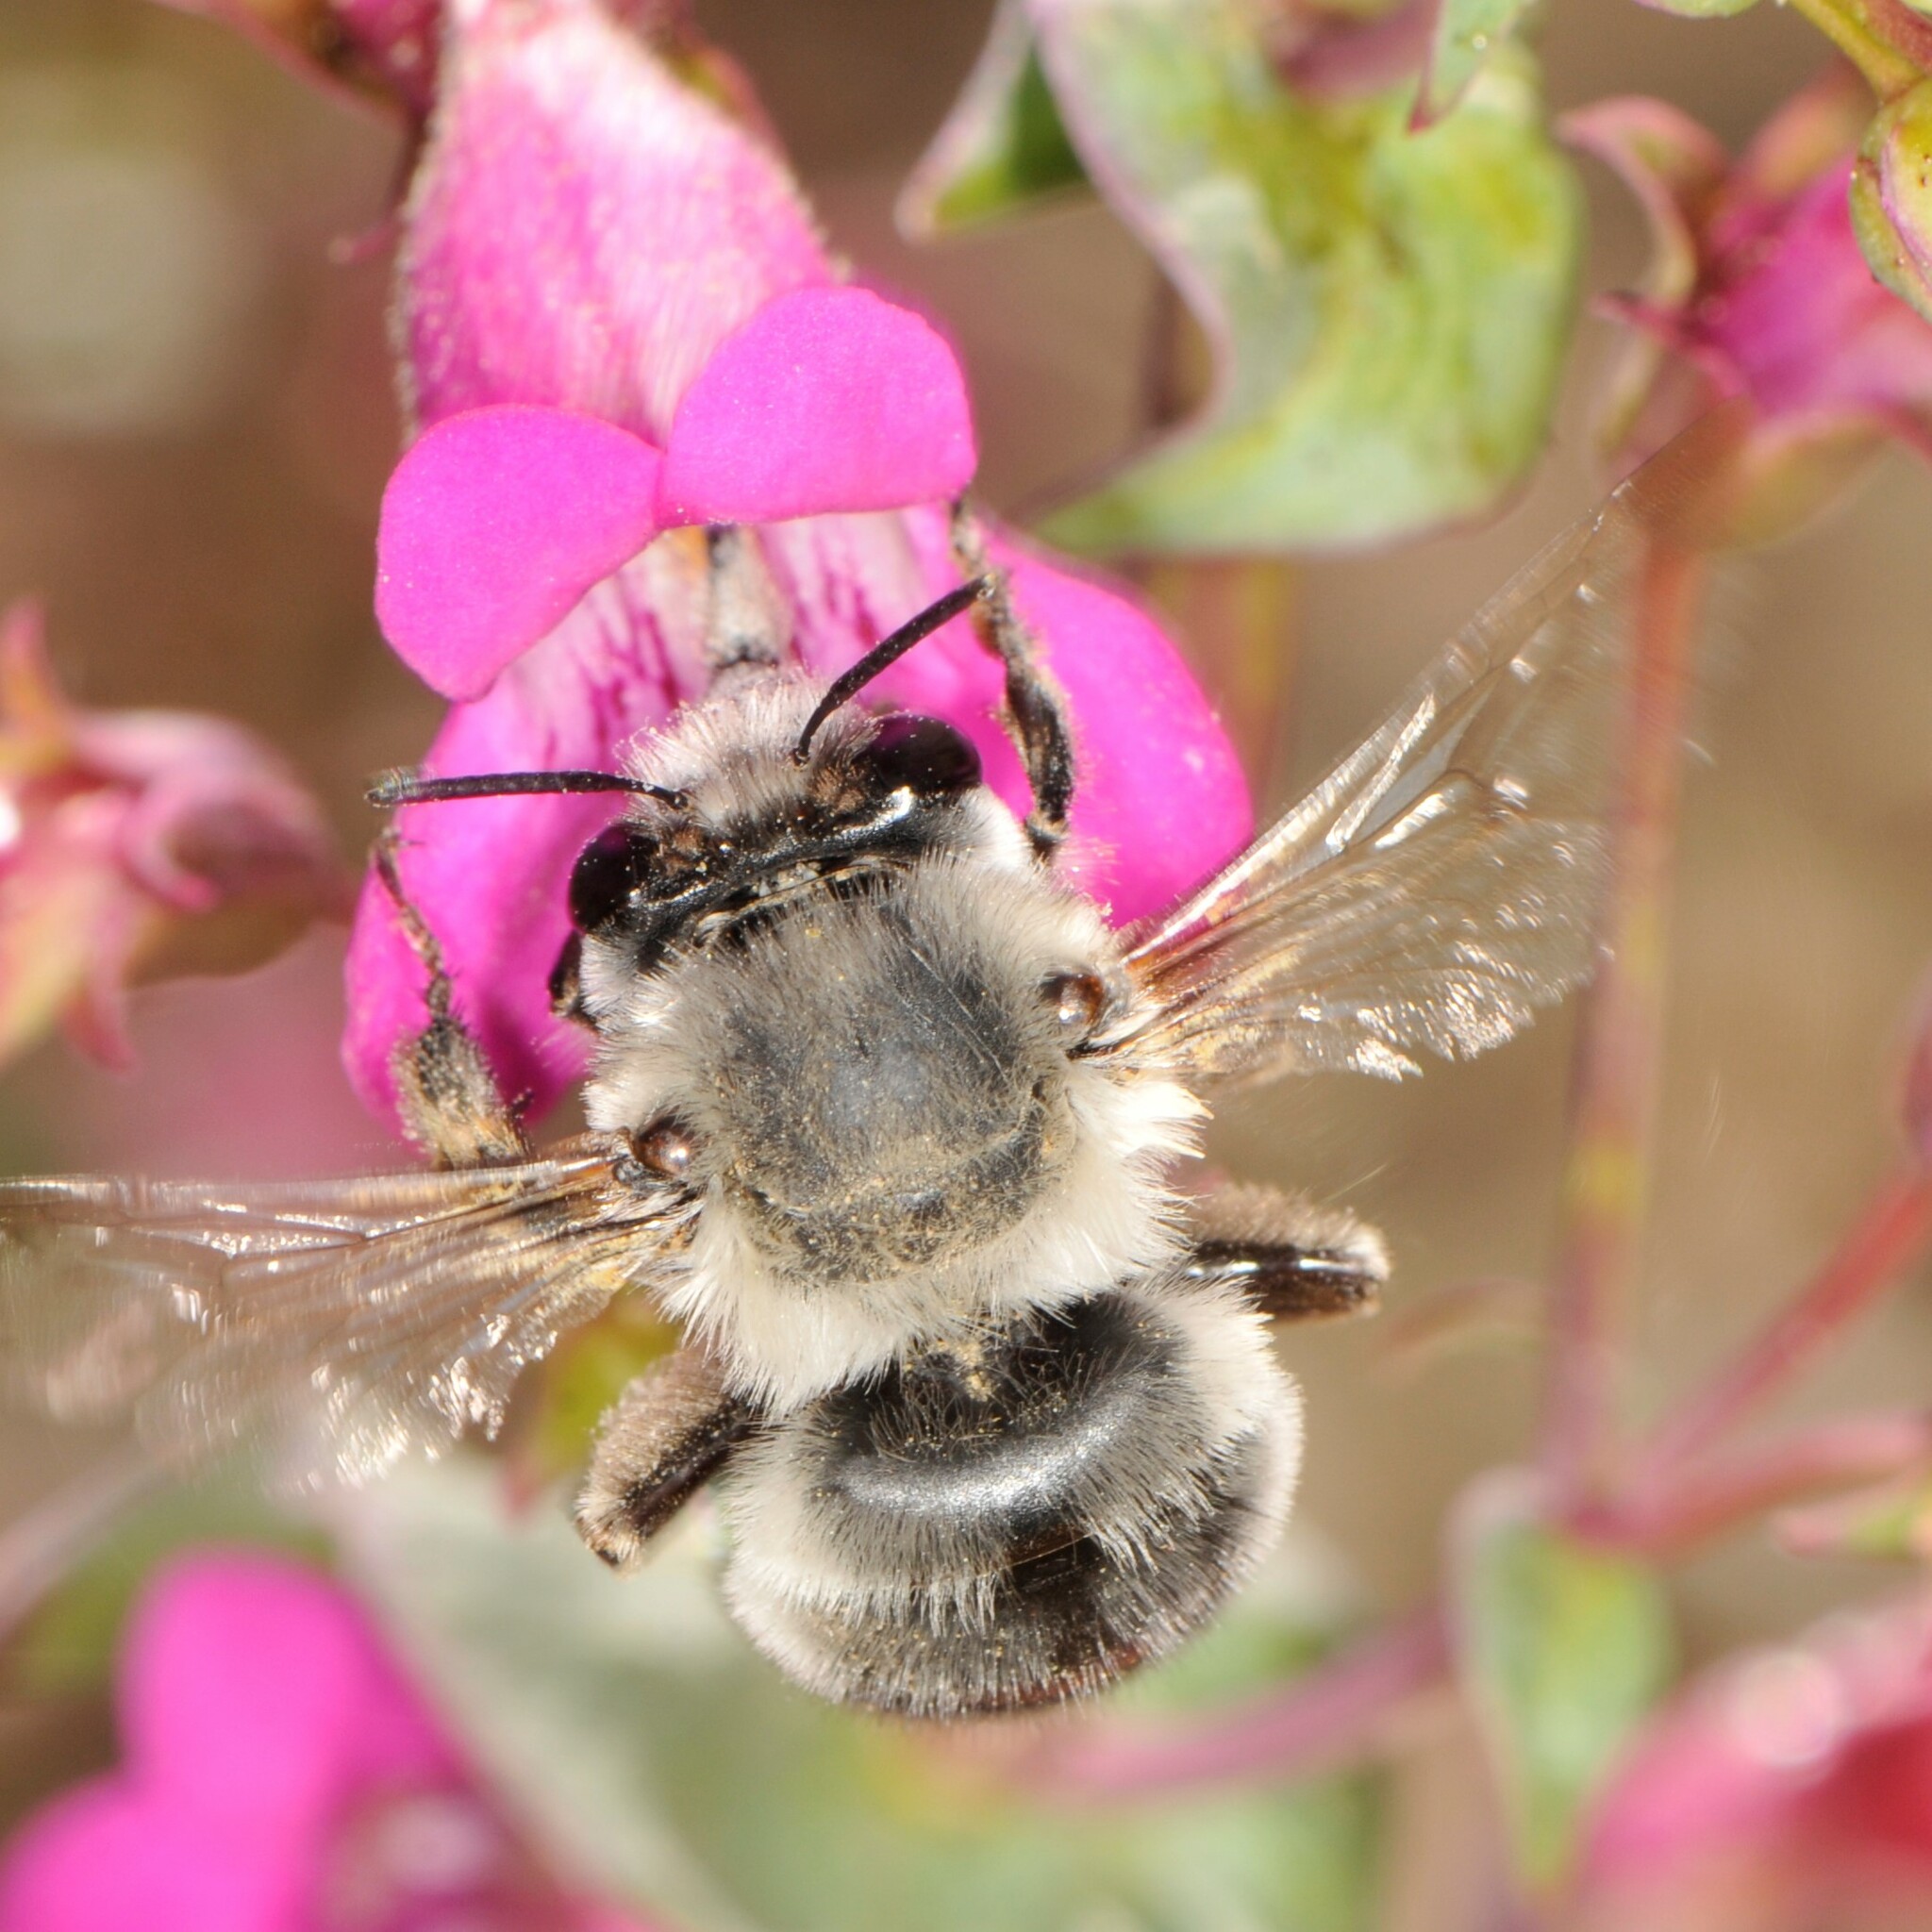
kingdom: Animalia
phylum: Arthropoda
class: Insecta
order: Hymenoptera
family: Apidae
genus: Anthophora
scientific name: Anthophora
